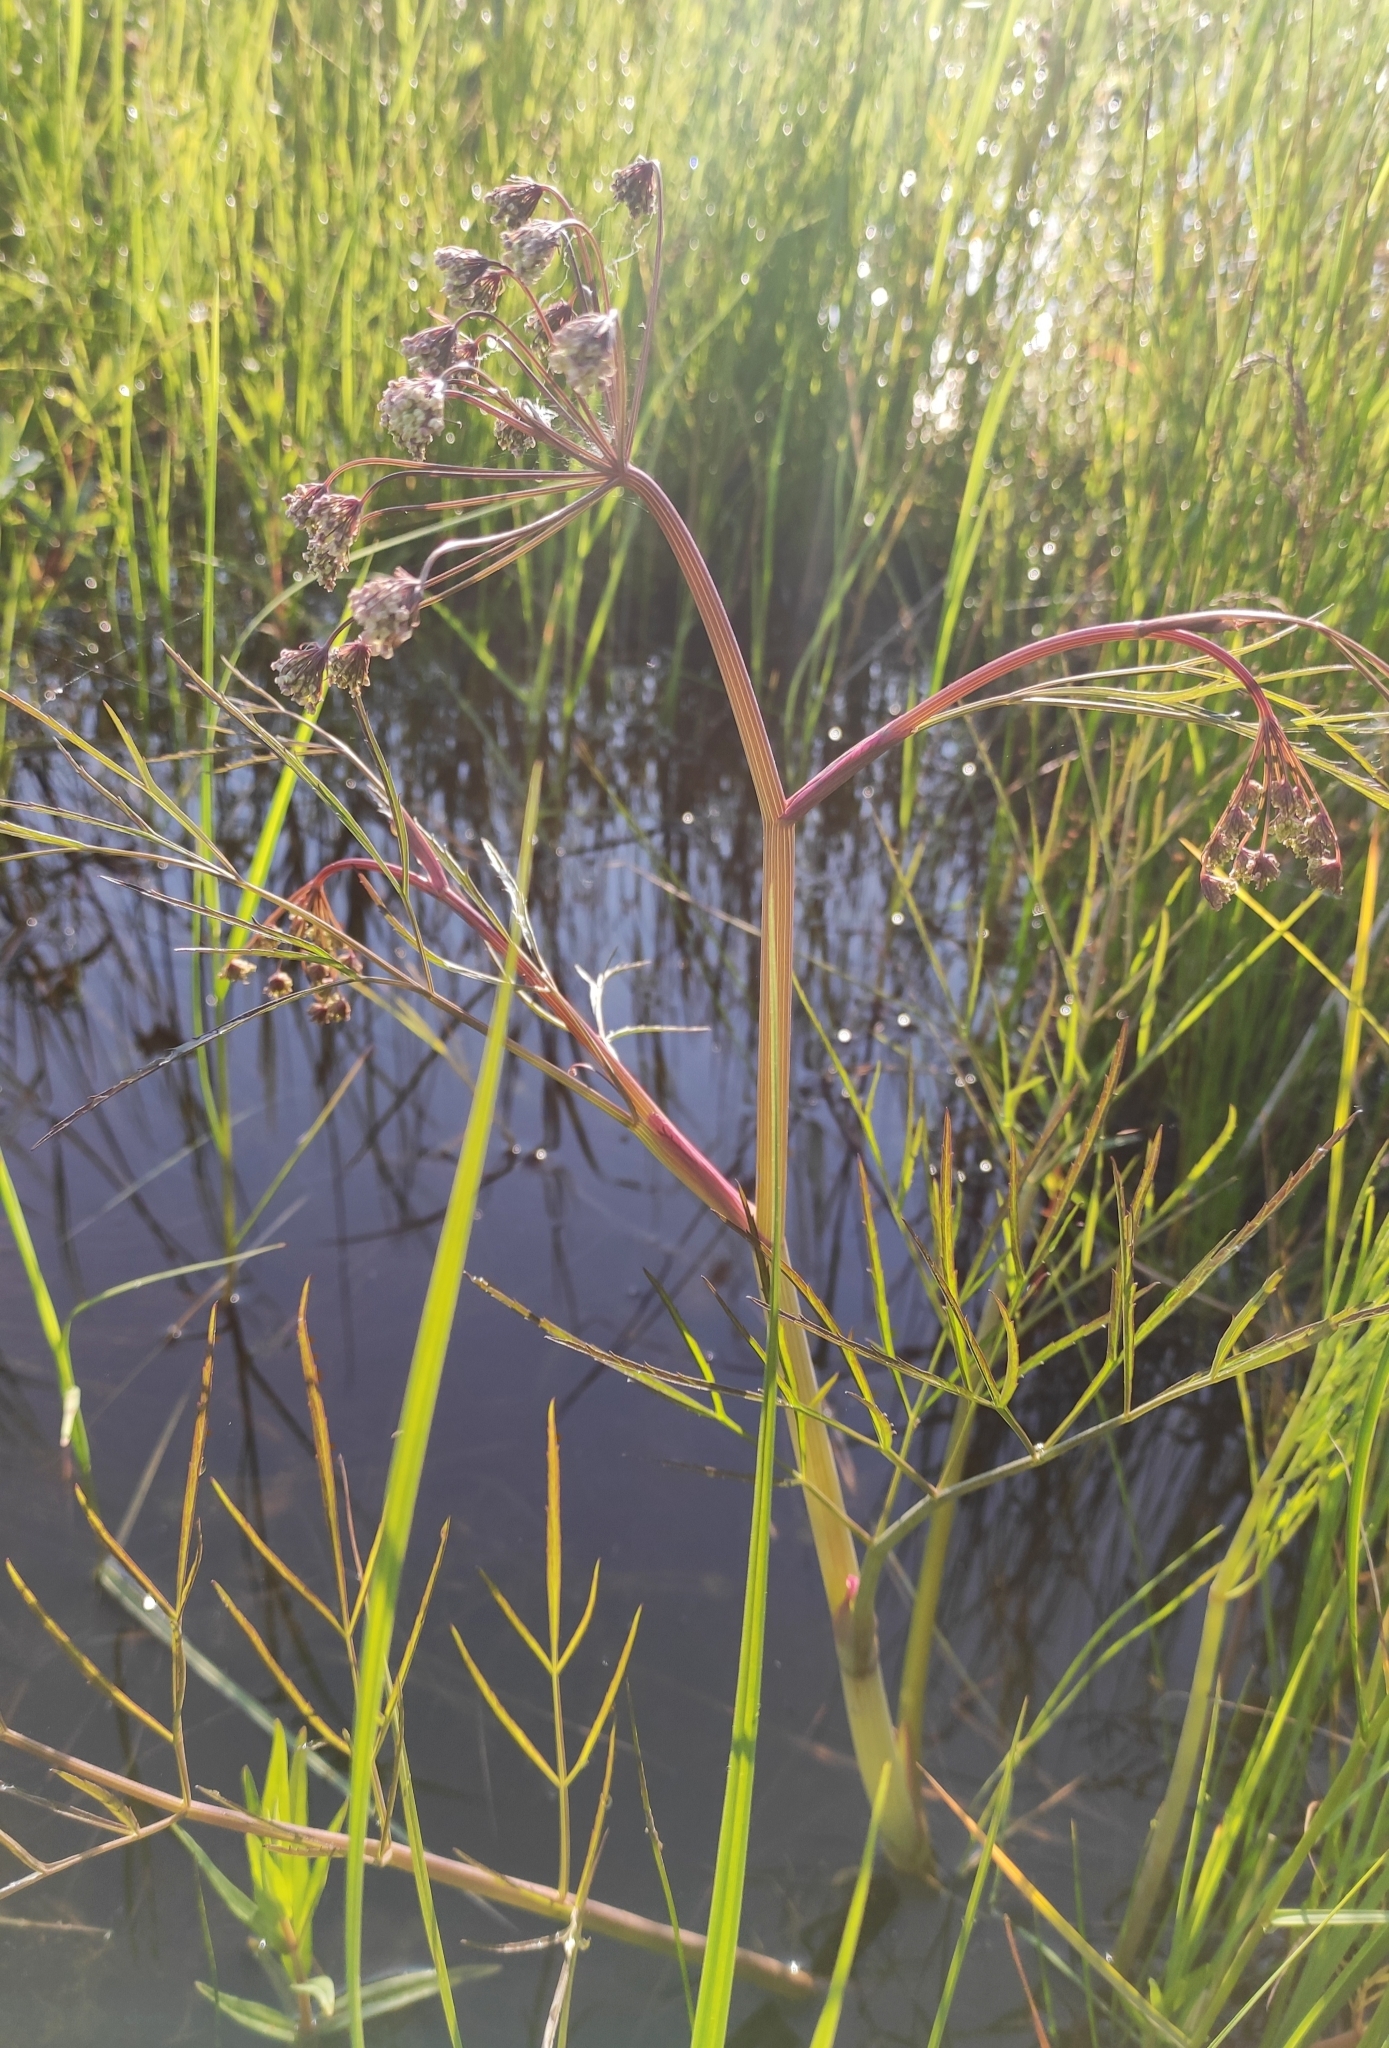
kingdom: Plantae
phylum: Tracheophyta
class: Magnoliopsida
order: Apiales
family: Apiaceae
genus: Cicuta
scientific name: Cicuta virosa
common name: Cowbane
